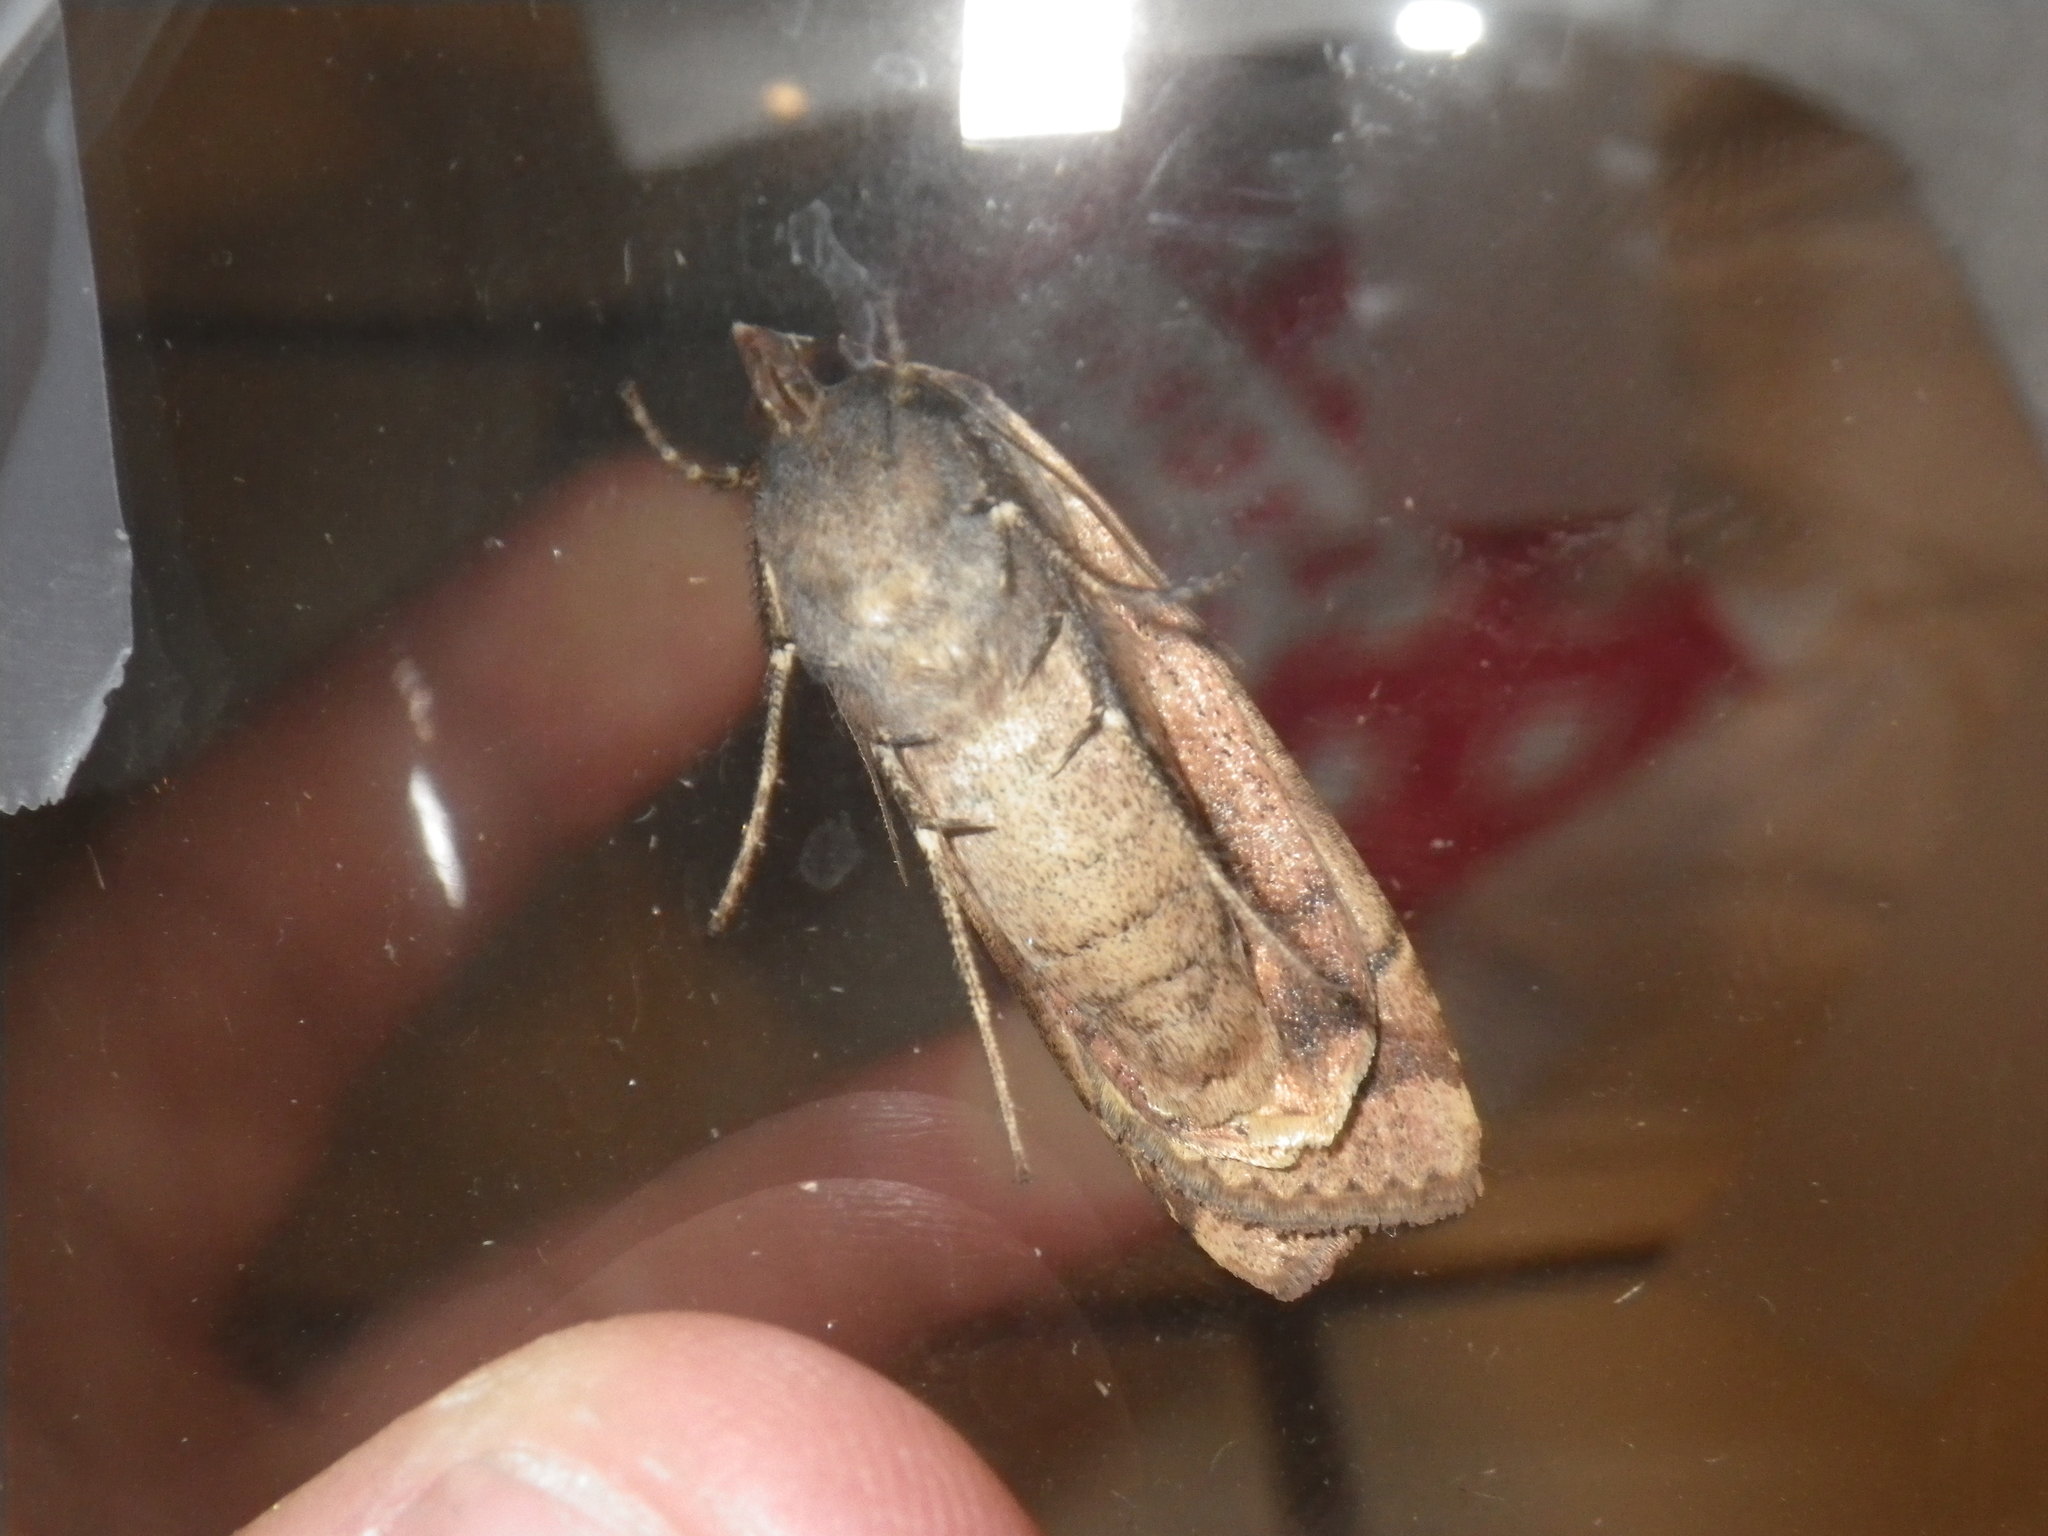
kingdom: Animalia
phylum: Arthropoda
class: Insecta
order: Lepidoptera
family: Noctuidae
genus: Noctua
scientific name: Noctua pronuba
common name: Large yellow underwing
